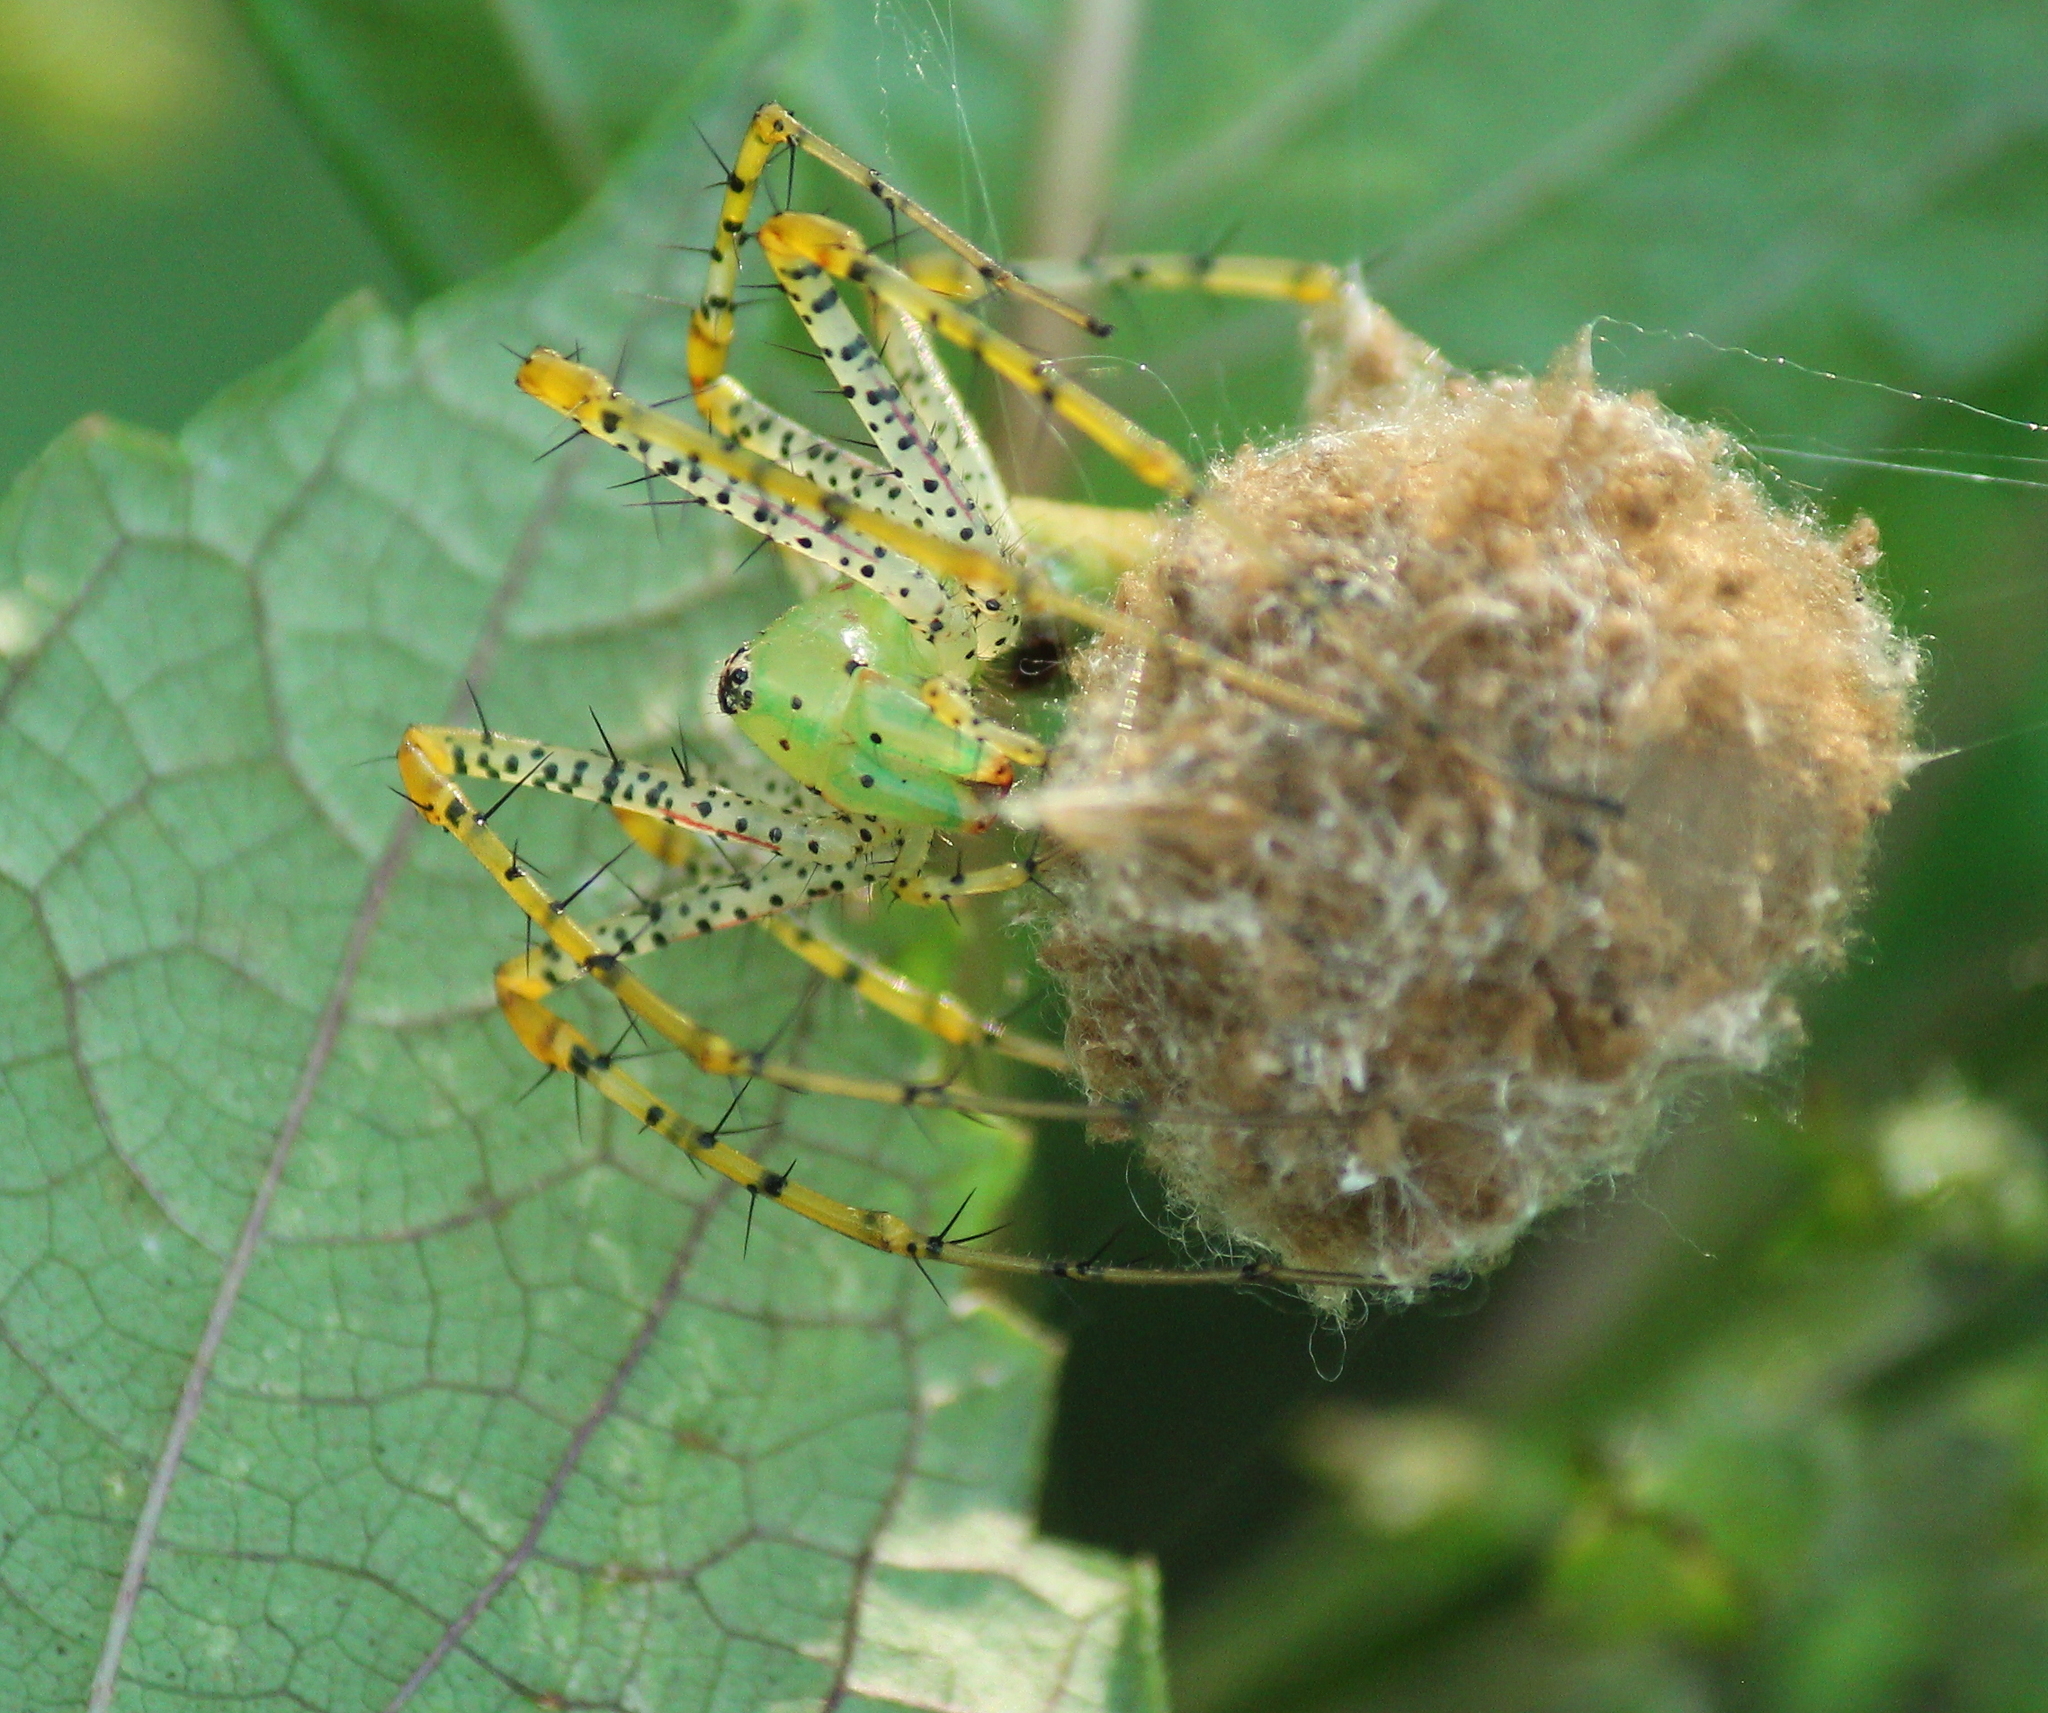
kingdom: Animalia
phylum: Arthropoda
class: Arachnida
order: Araneae
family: Oxyopidae
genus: Peucetia
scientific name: Peucetia viridans
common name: Lynx spiders
